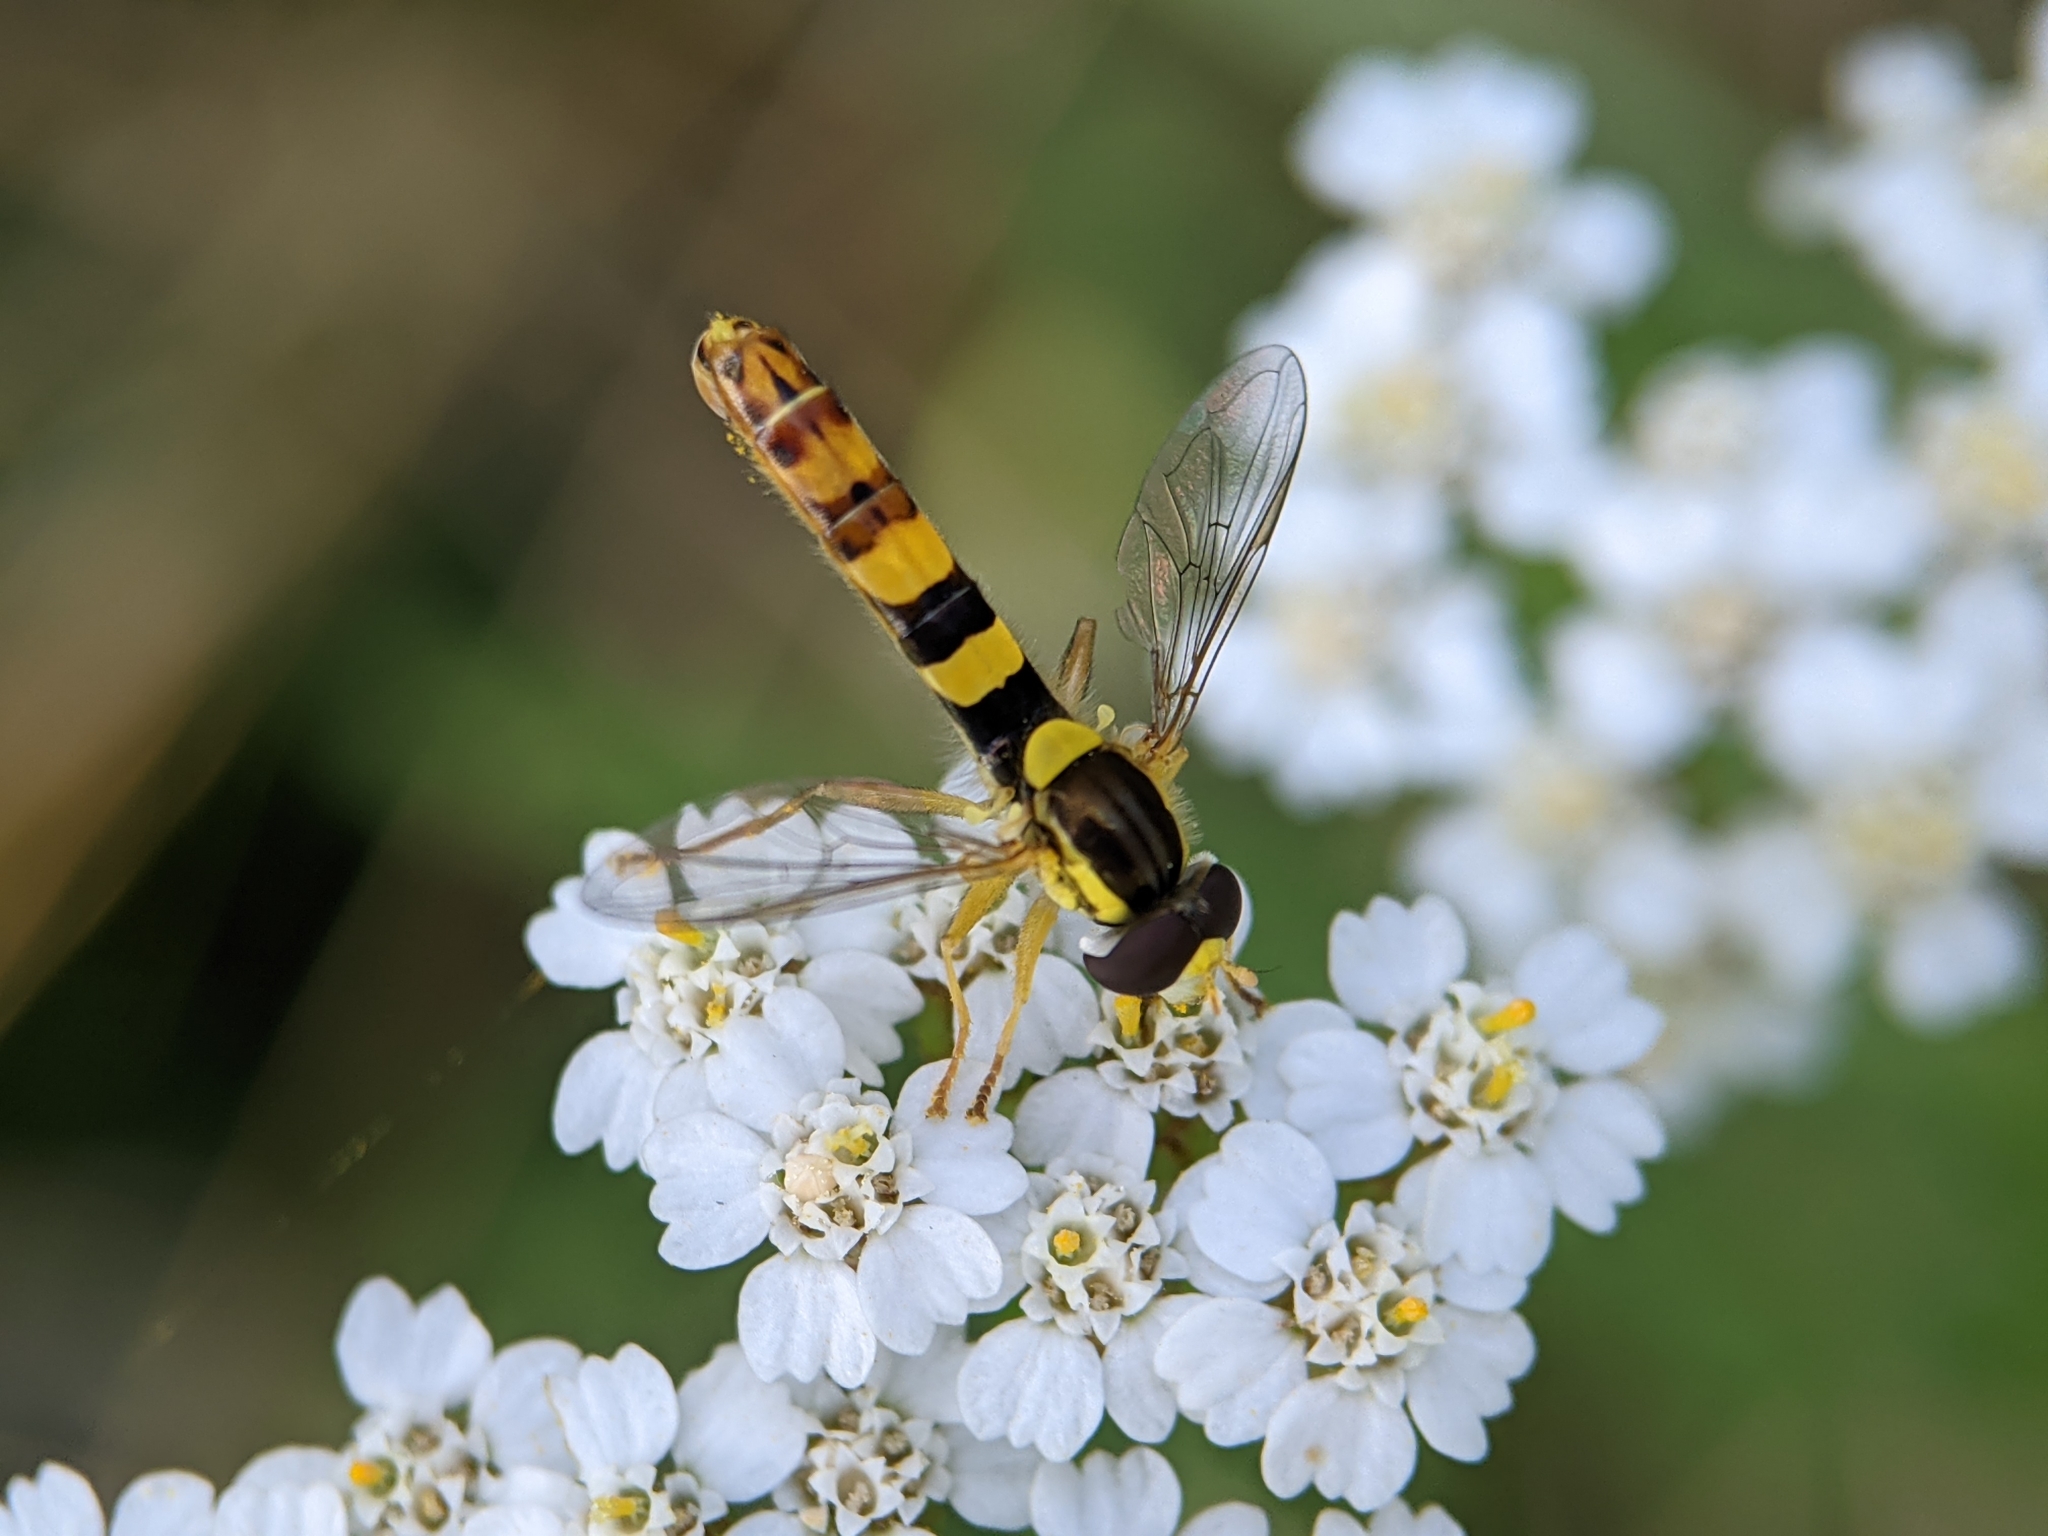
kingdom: Animalia
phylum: Arthropoda
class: Insecta
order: Diptera
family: Syrphidae
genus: Sphaerophoria
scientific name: Sphaerophoria scripta
